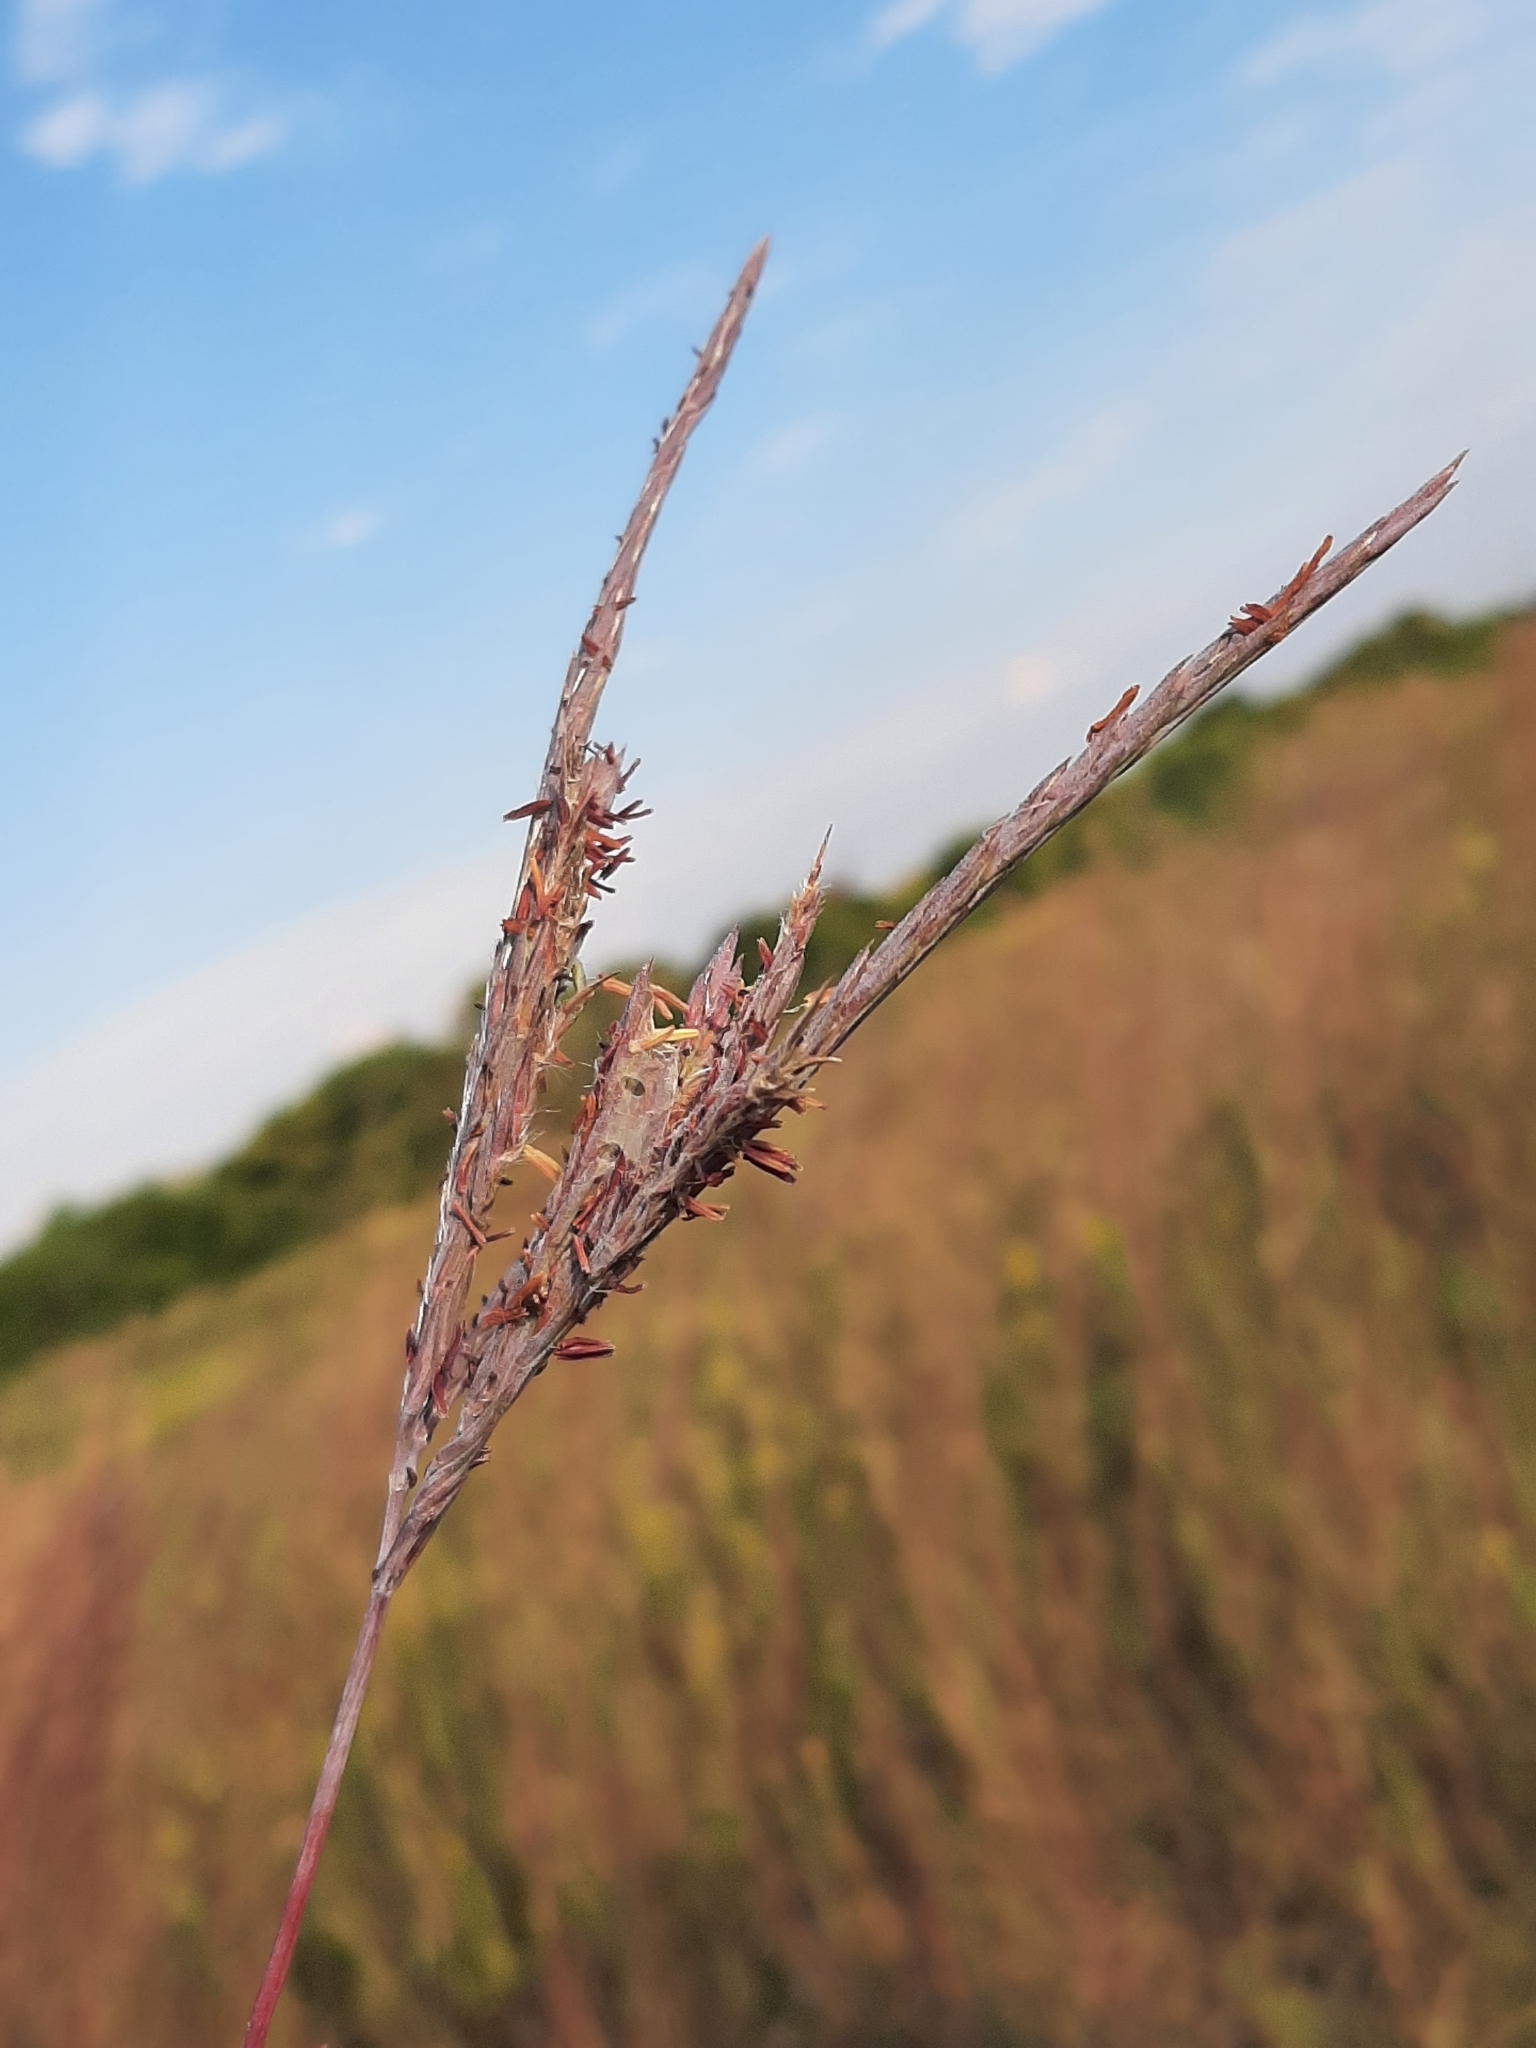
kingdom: Plantae
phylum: Tracheophyta
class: Liliopsida
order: Poales
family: Poaceae
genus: Andropogon
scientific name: Andropogon gerardi
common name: Big bluestem
